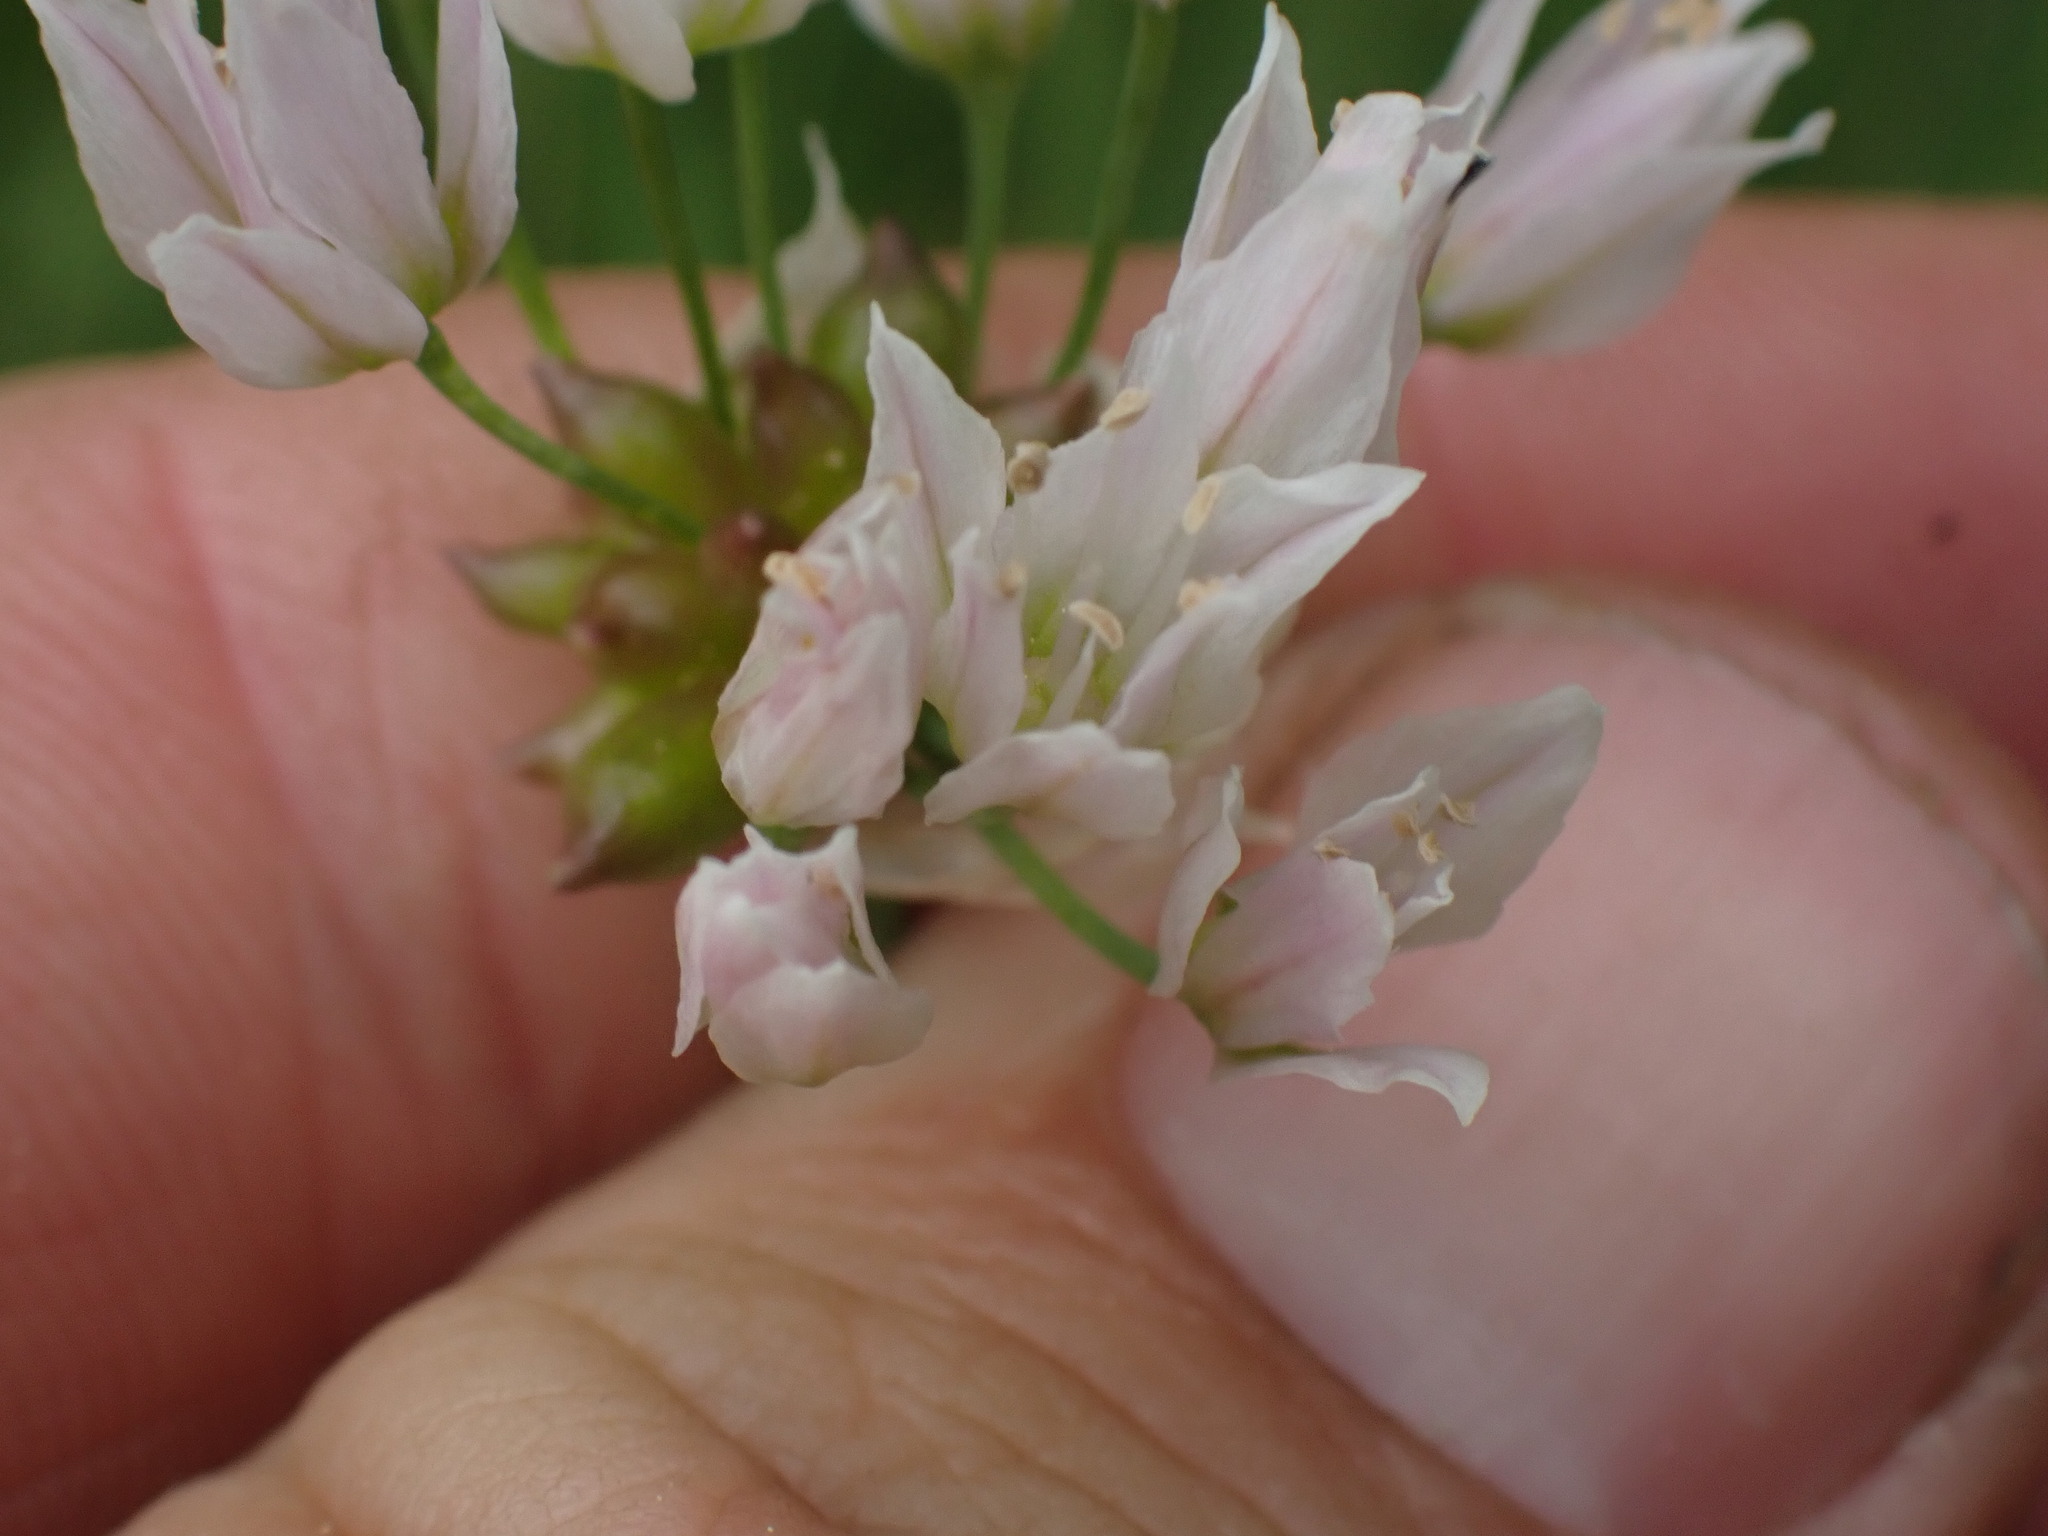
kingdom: Plantae
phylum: Tracheophyta
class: Liliopsida
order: Asparagales
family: Amaryllidaceae
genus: Allium
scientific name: Allium geyeri
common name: Geyer's onion
